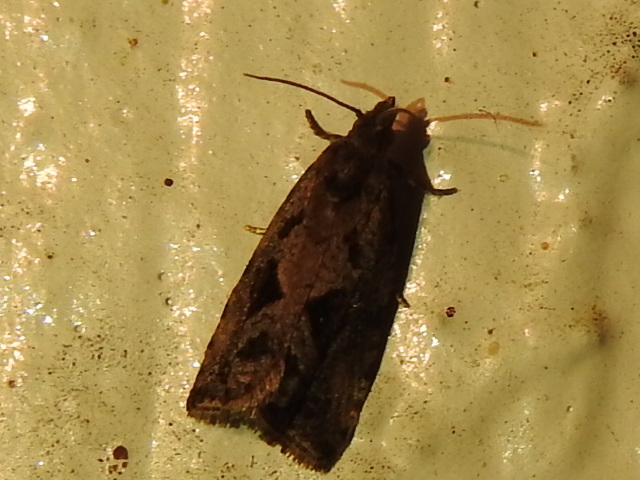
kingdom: Animalia
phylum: Arthropoda
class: Insecta
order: Lepidoptera
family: Tortricidae
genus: Endothenia
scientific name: Endothenia nubilana
